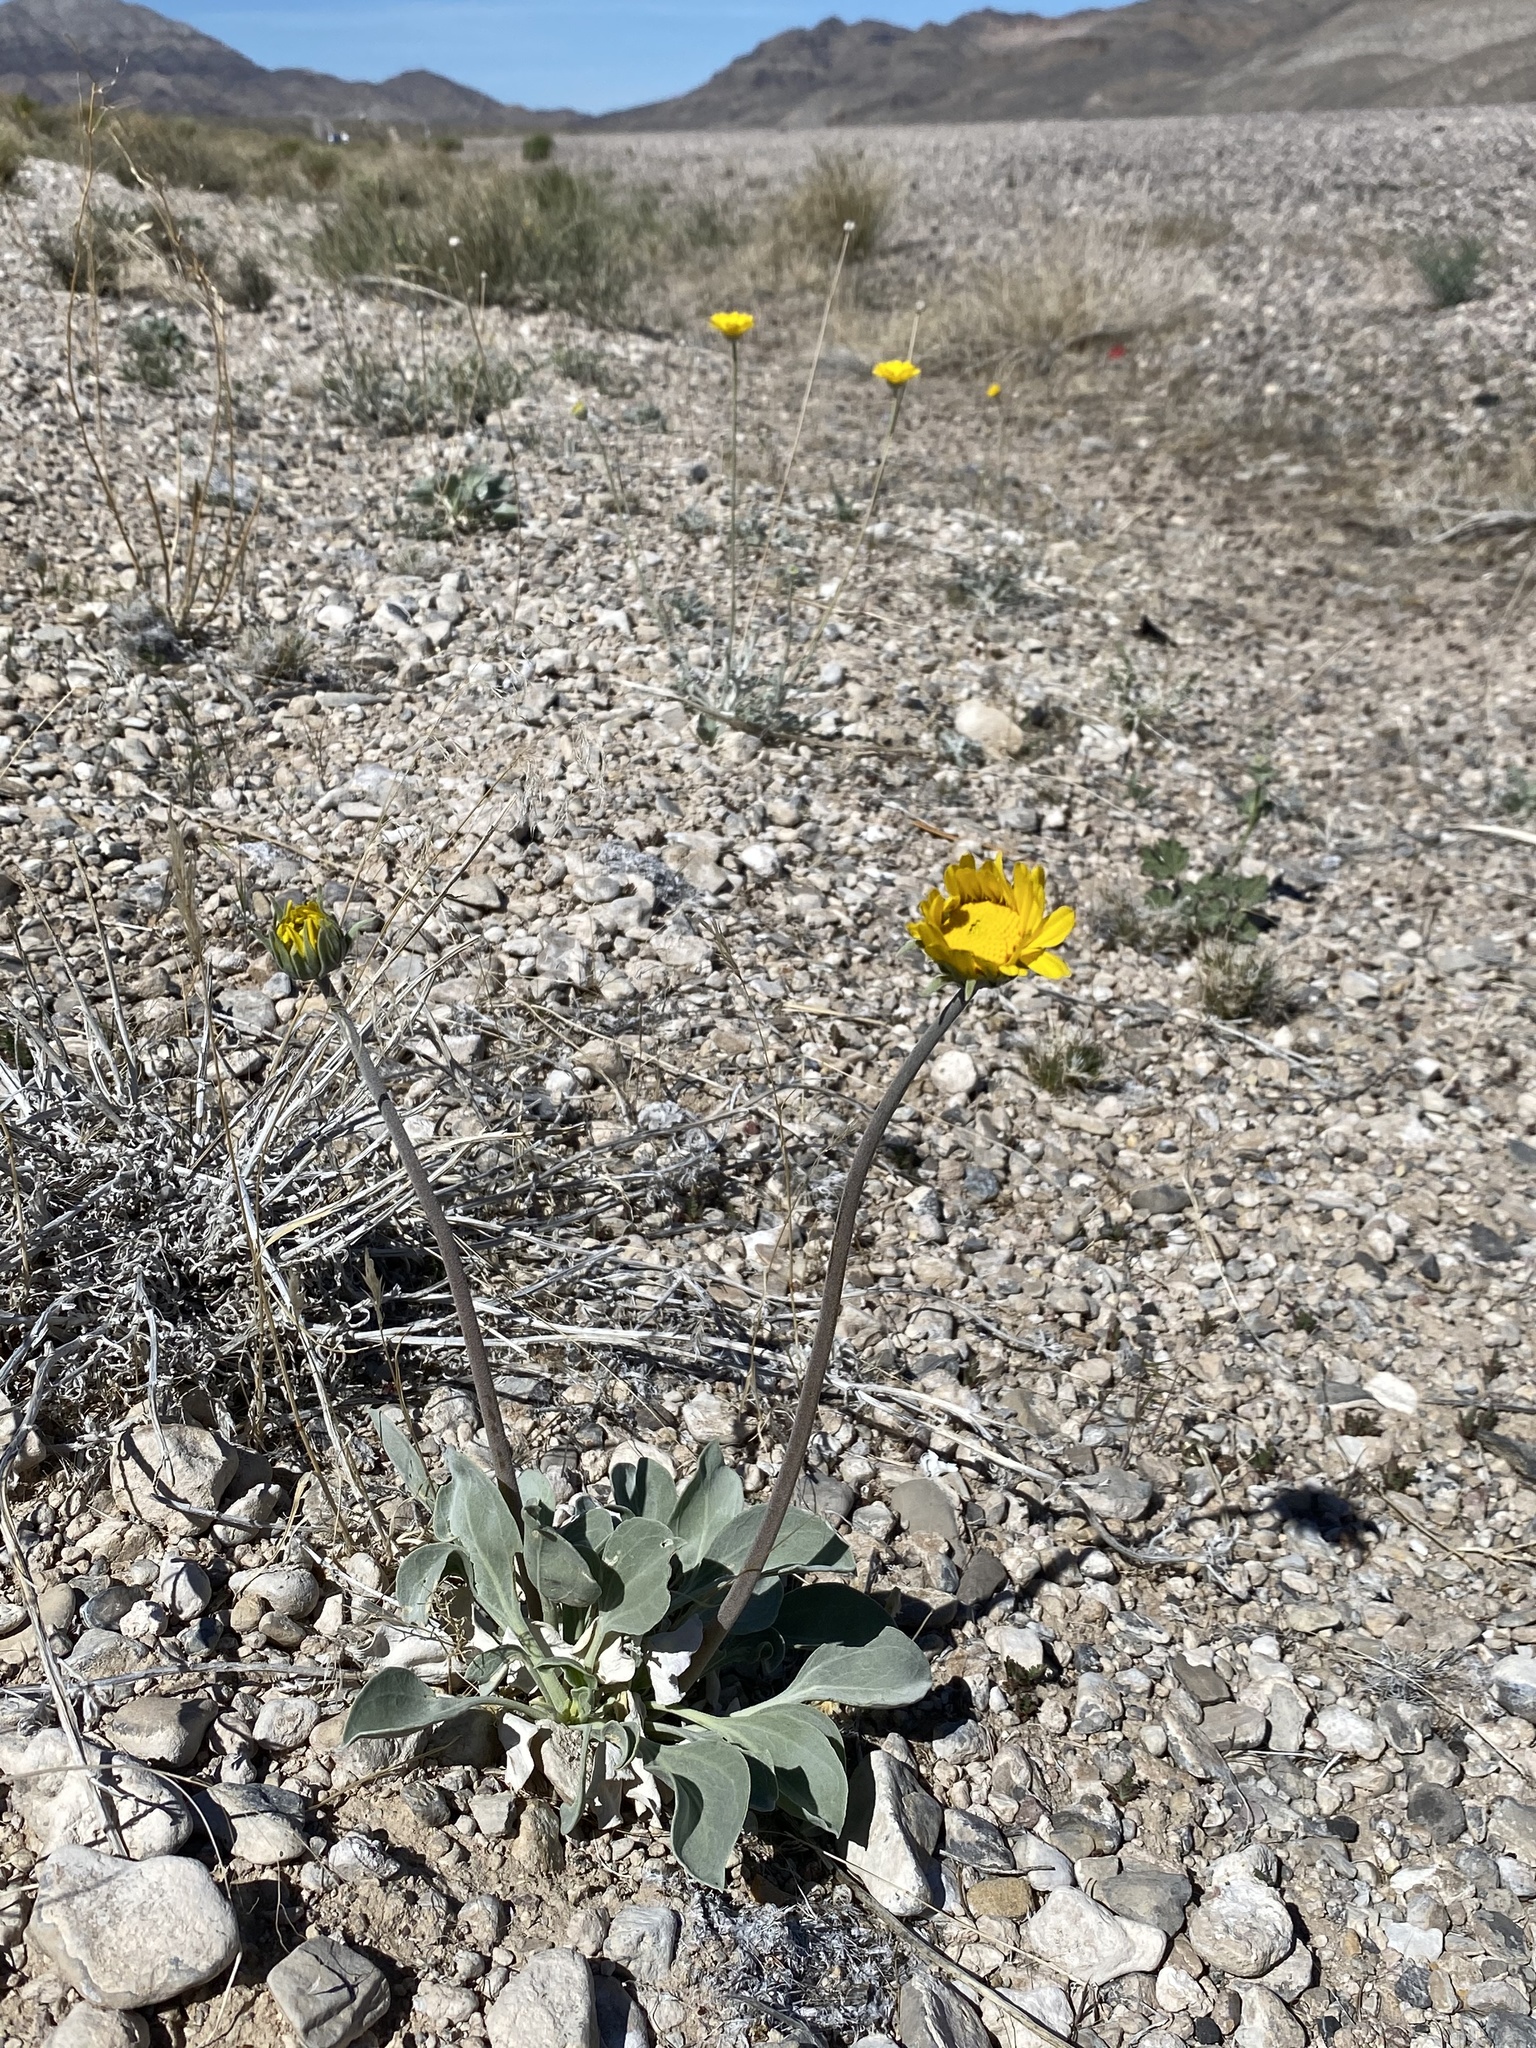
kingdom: Plantae
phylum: Tracheophyta
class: Magnoliopsida
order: Asterales
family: Asteraceae
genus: Enceliopsis
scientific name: Enceliopsis nudicaulis
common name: Naked-stem daisy
